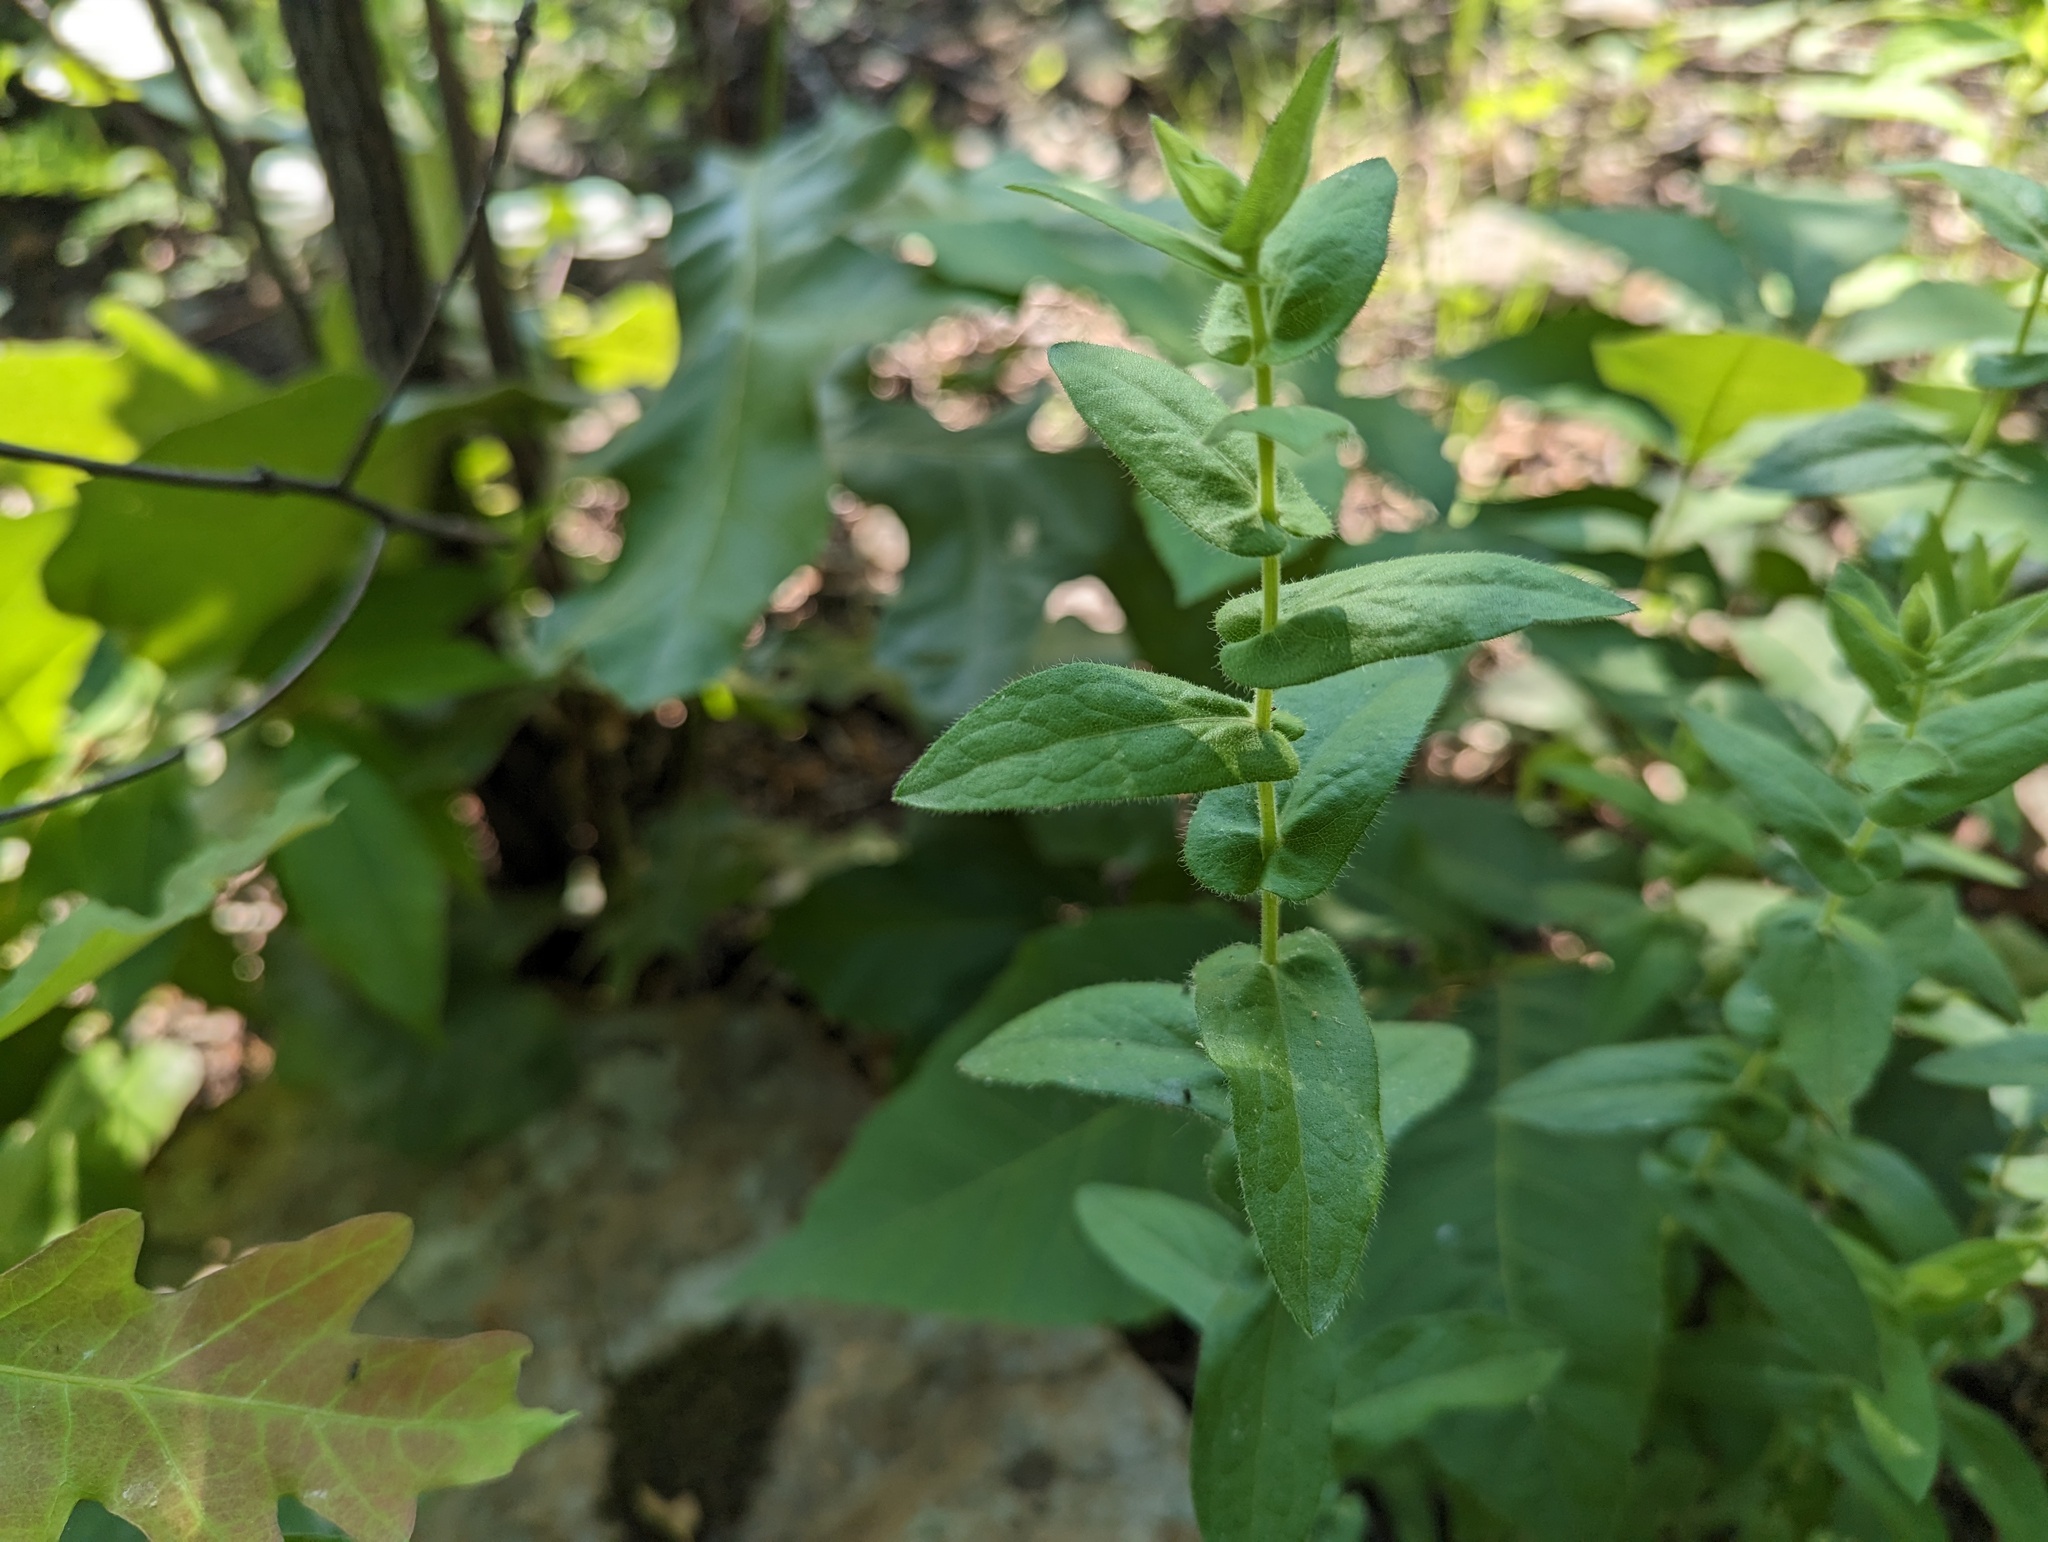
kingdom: Plantae
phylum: Tracheophyta
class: Magnoliopsida
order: Asterales
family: Asteraceae
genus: Symphyotrichum
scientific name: Symphyotrichum patens
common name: Late purple aster
